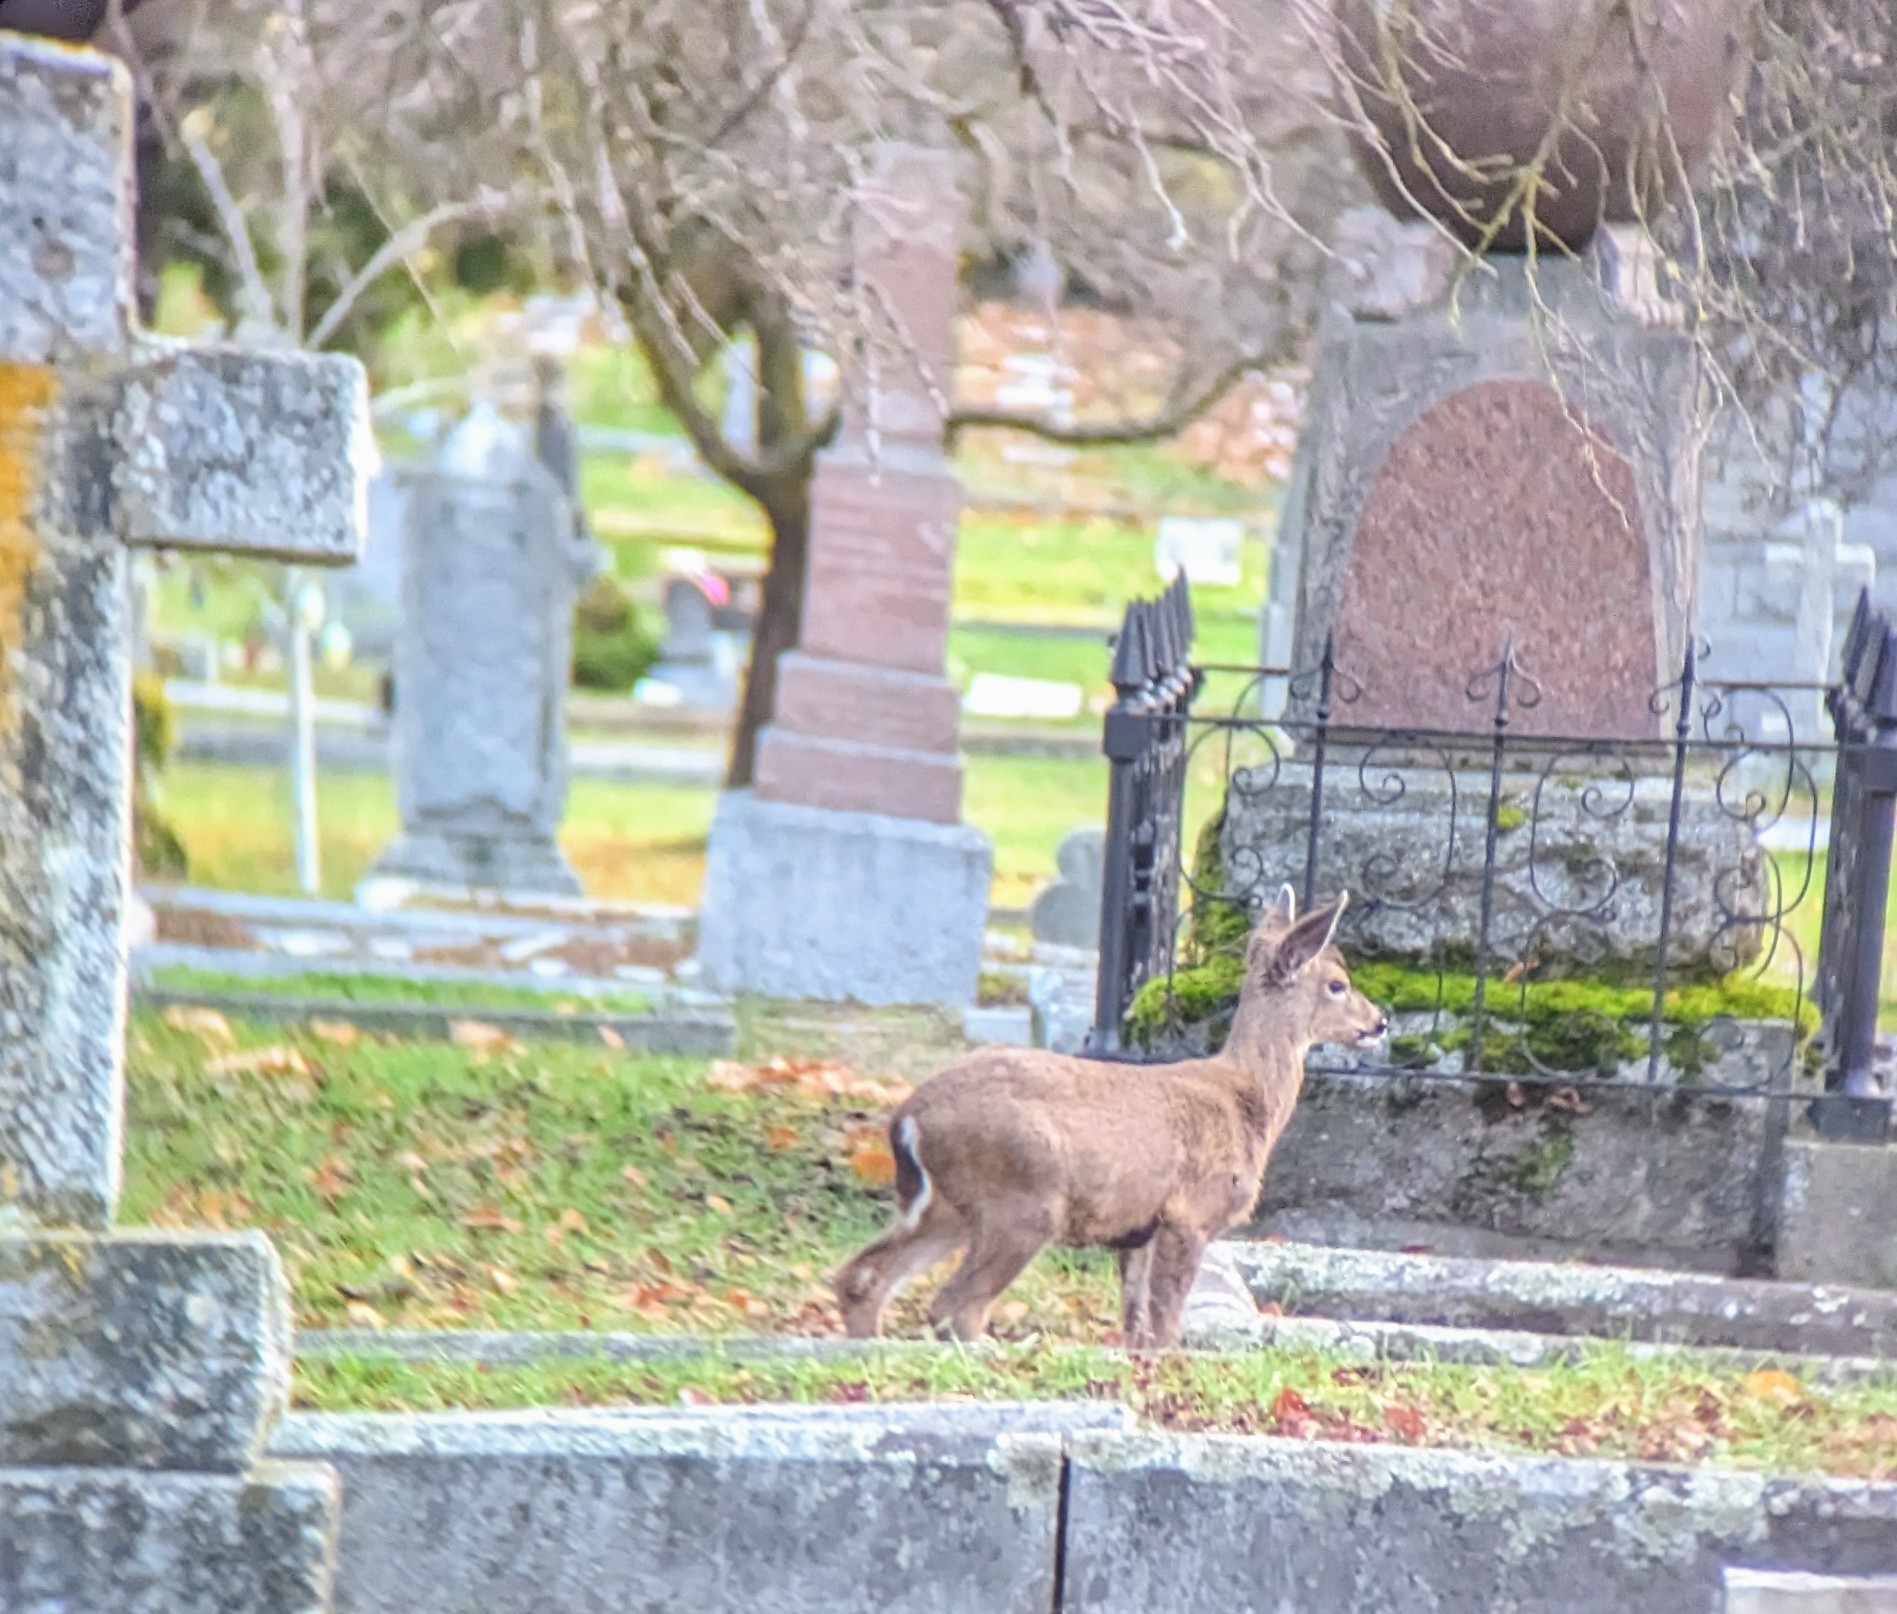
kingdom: Animalia
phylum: Chordata
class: Mammalia
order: Artiodactyla
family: Cervidae
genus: Odocoileus
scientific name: Odocoileus hemionus
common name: Mule deer
